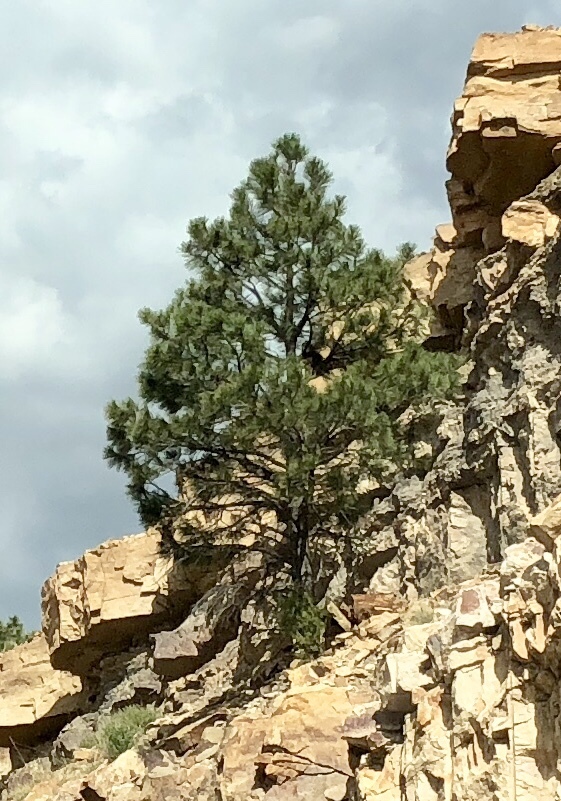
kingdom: Plantae
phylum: Tracheophyta
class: Pinopsida
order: Pinales
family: Pinaceae
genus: Pinus
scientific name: Pinus ponderosa
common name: Western yellow-pine
